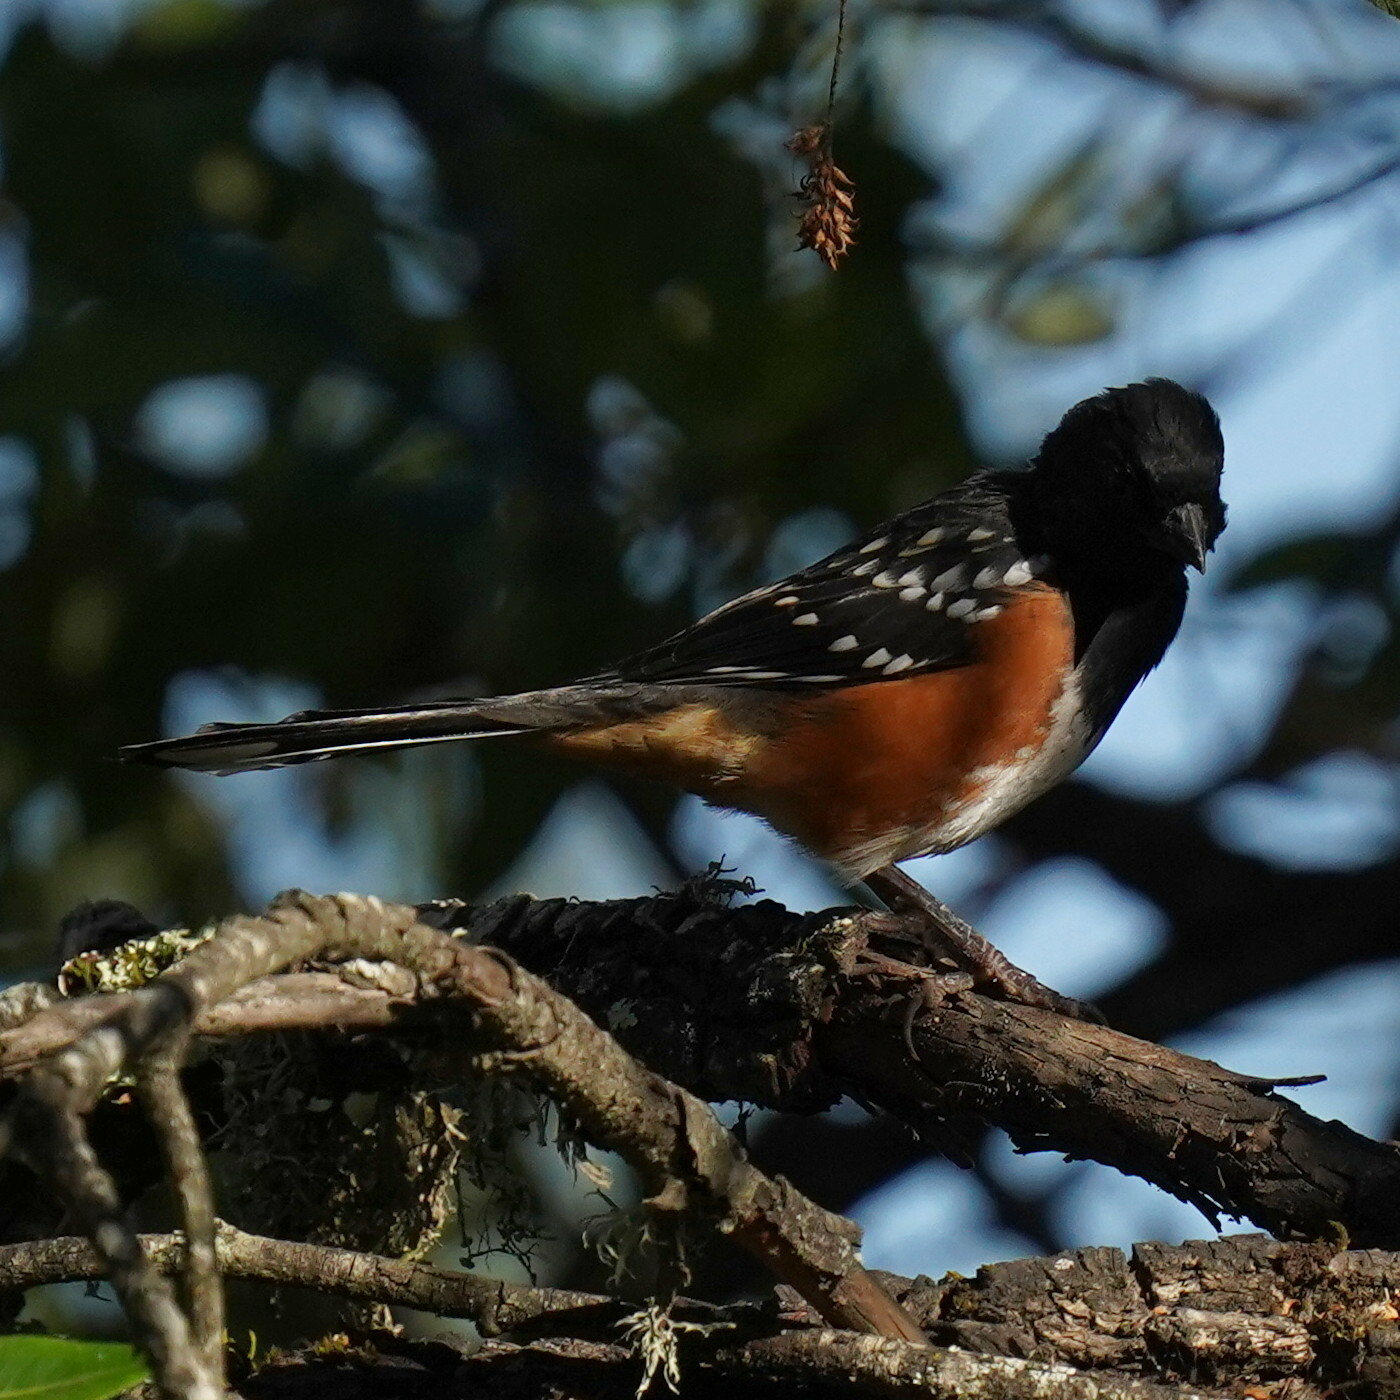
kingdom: Animalia
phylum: Chordata
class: Aves
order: Passeriformes
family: Passerellidae
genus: Pipilo
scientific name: Pipilo maculatus
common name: Spotted towhee
